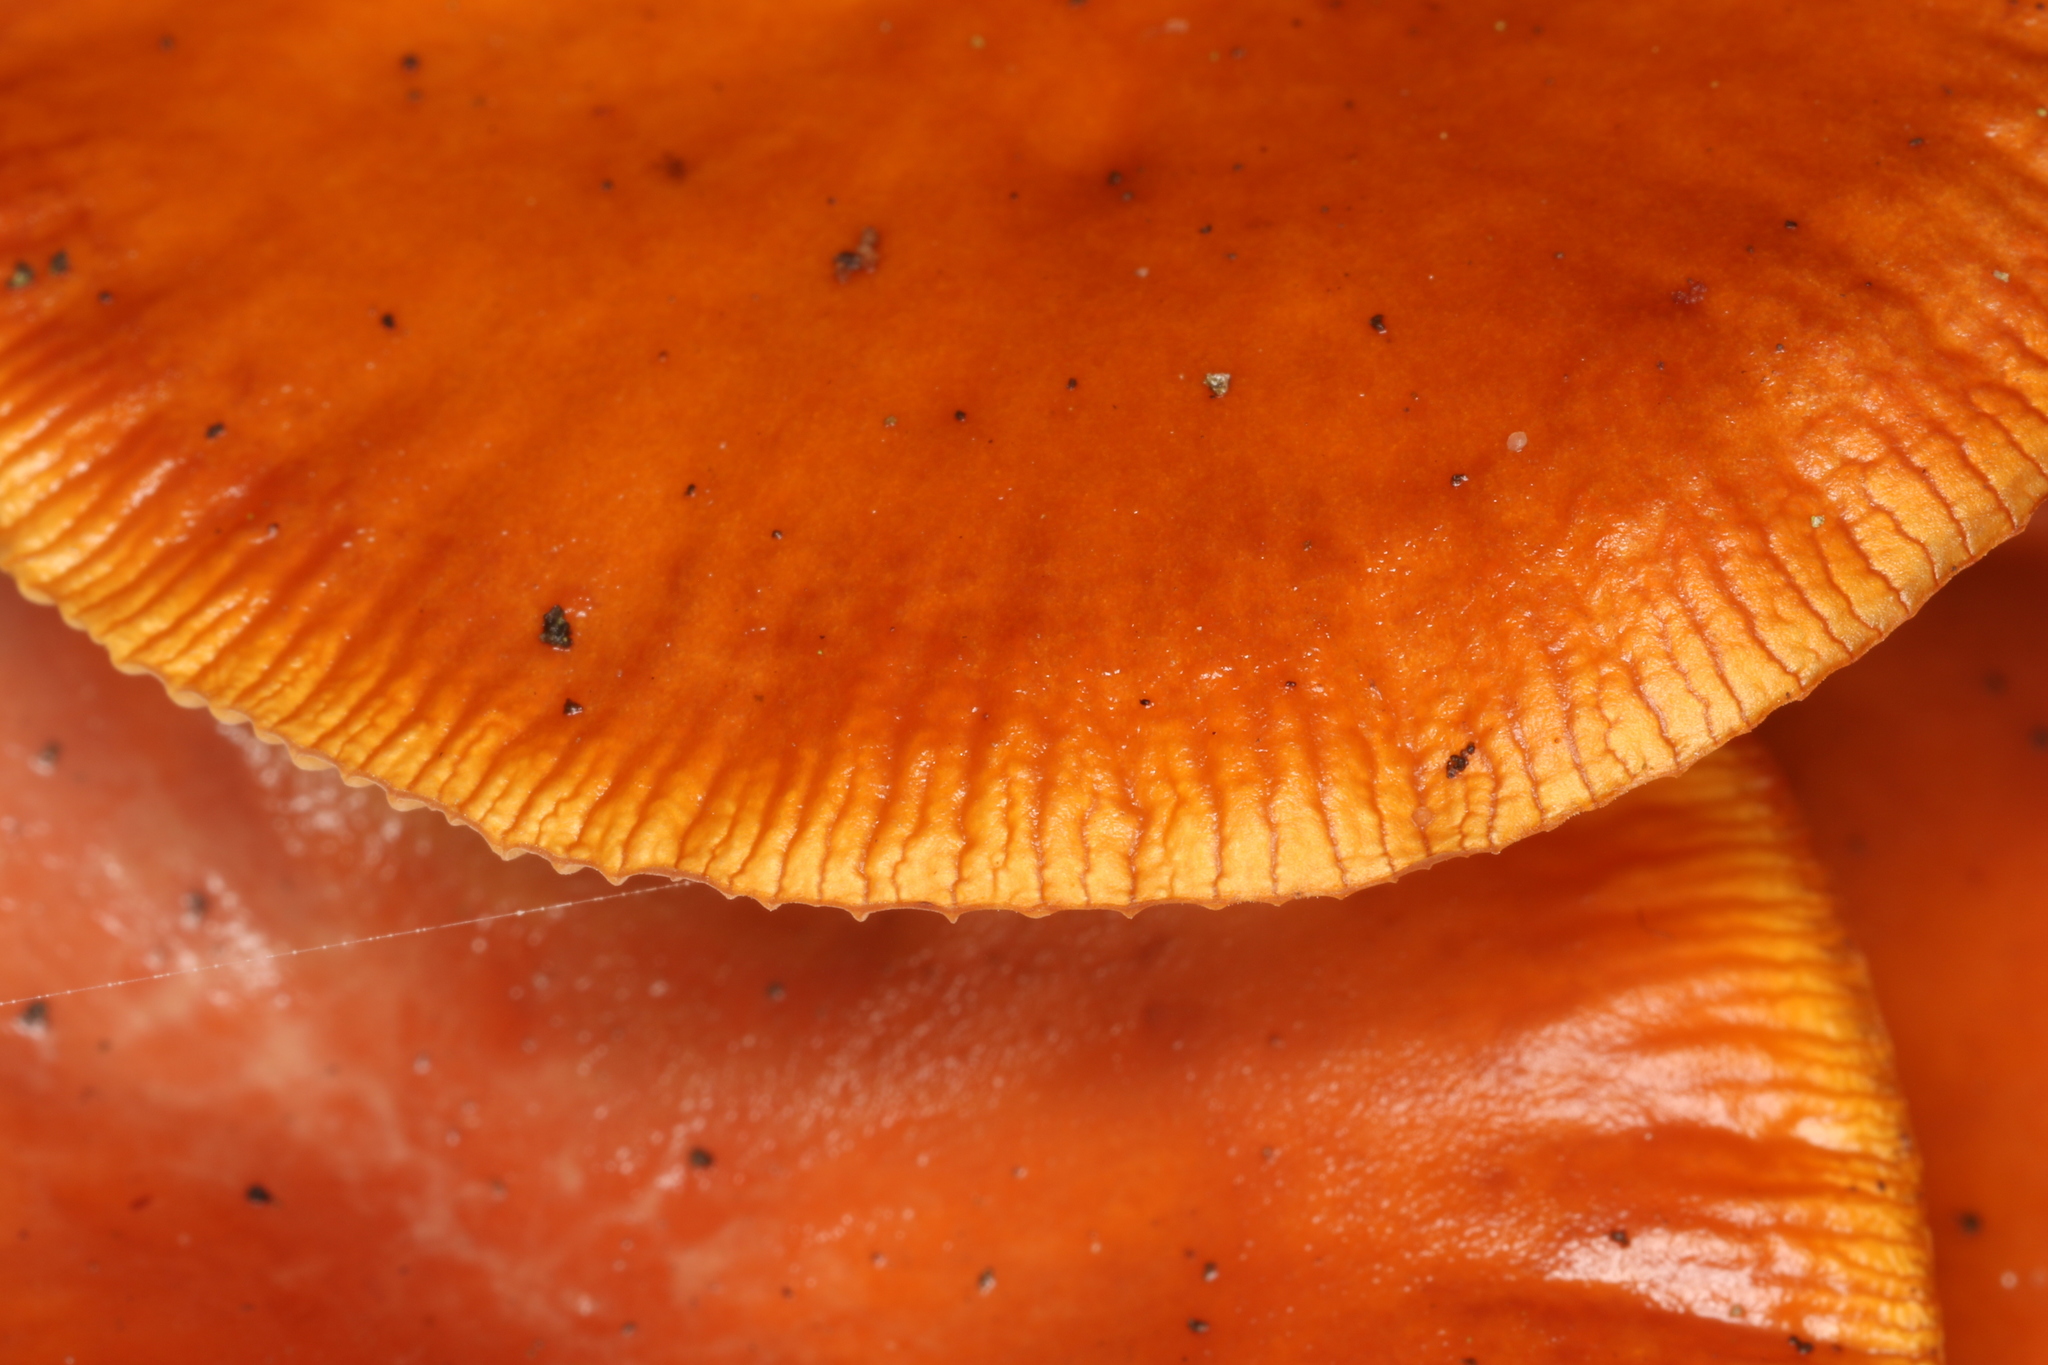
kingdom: Fungi
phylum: Basidiomycota
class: Agaricomycetes
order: Agaricales
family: Physalacriaceae
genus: Flammulina
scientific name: Flammulina
